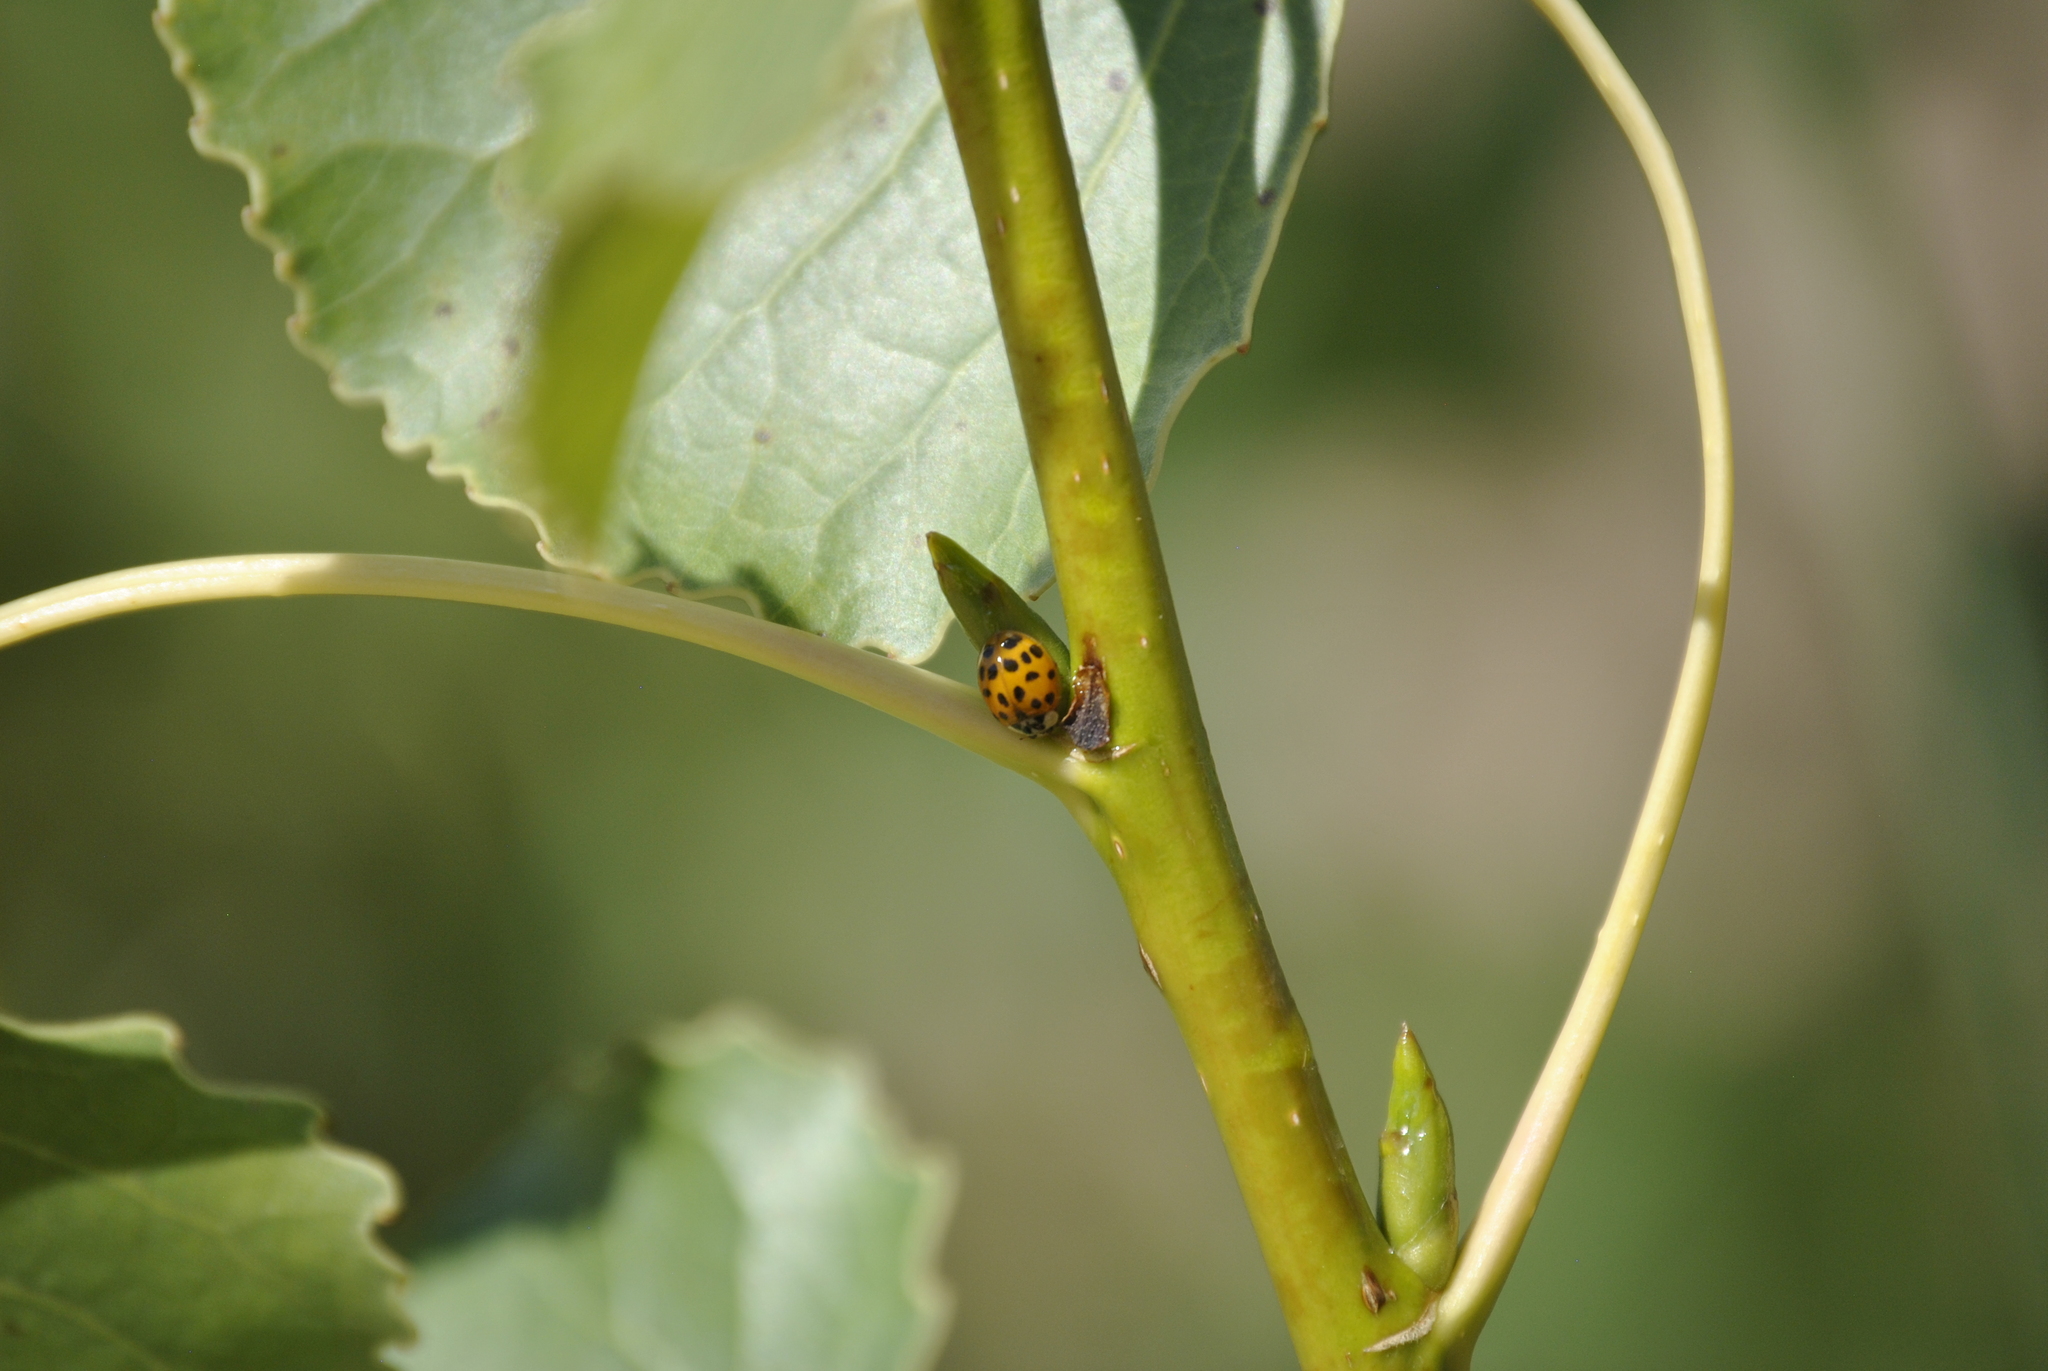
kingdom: Animalia
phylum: Arthropoda
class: Insecta
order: Coleoptera
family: Coccinellidae
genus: Harmonia
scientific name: Harmonia axyridis
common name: Harlequin ladybird
